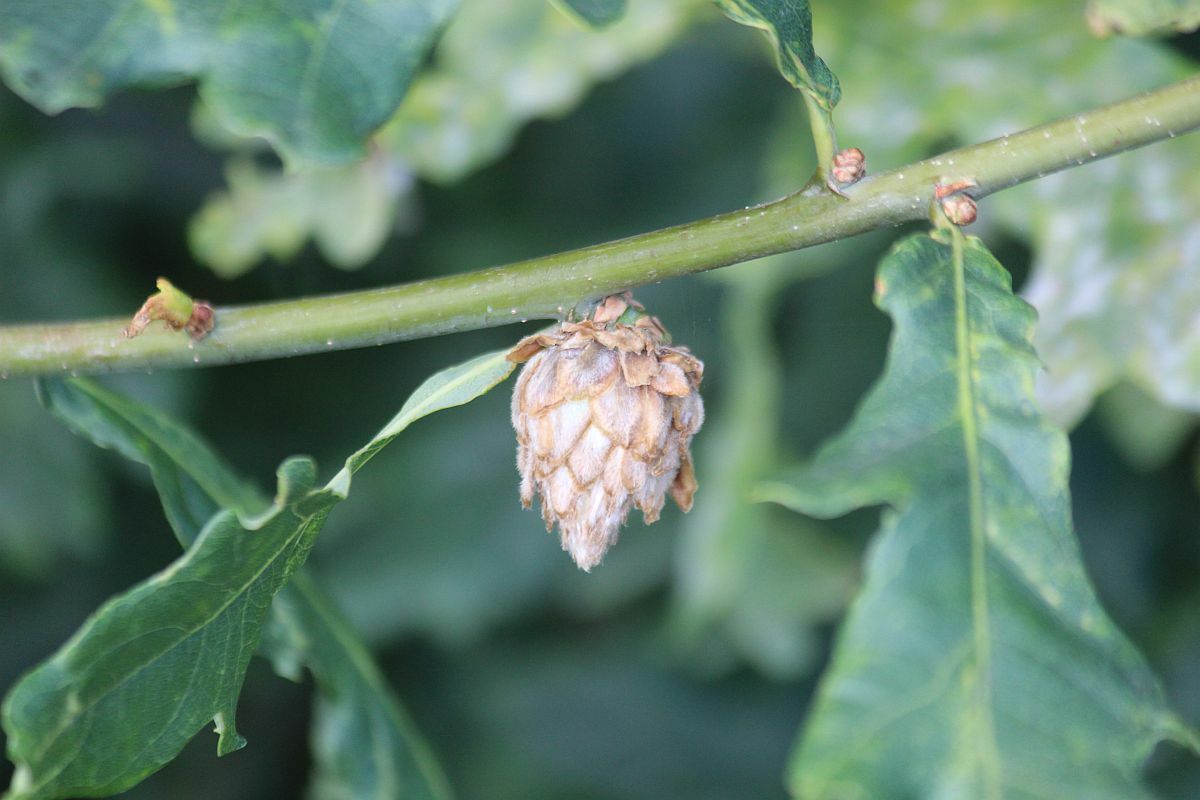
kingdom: Animalia
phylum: Arthropoda
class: Insecta
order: Hymenoptera
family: Cynipidae
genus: Andricus
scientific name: Andricus foecundatrix
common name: Artichoke gall
